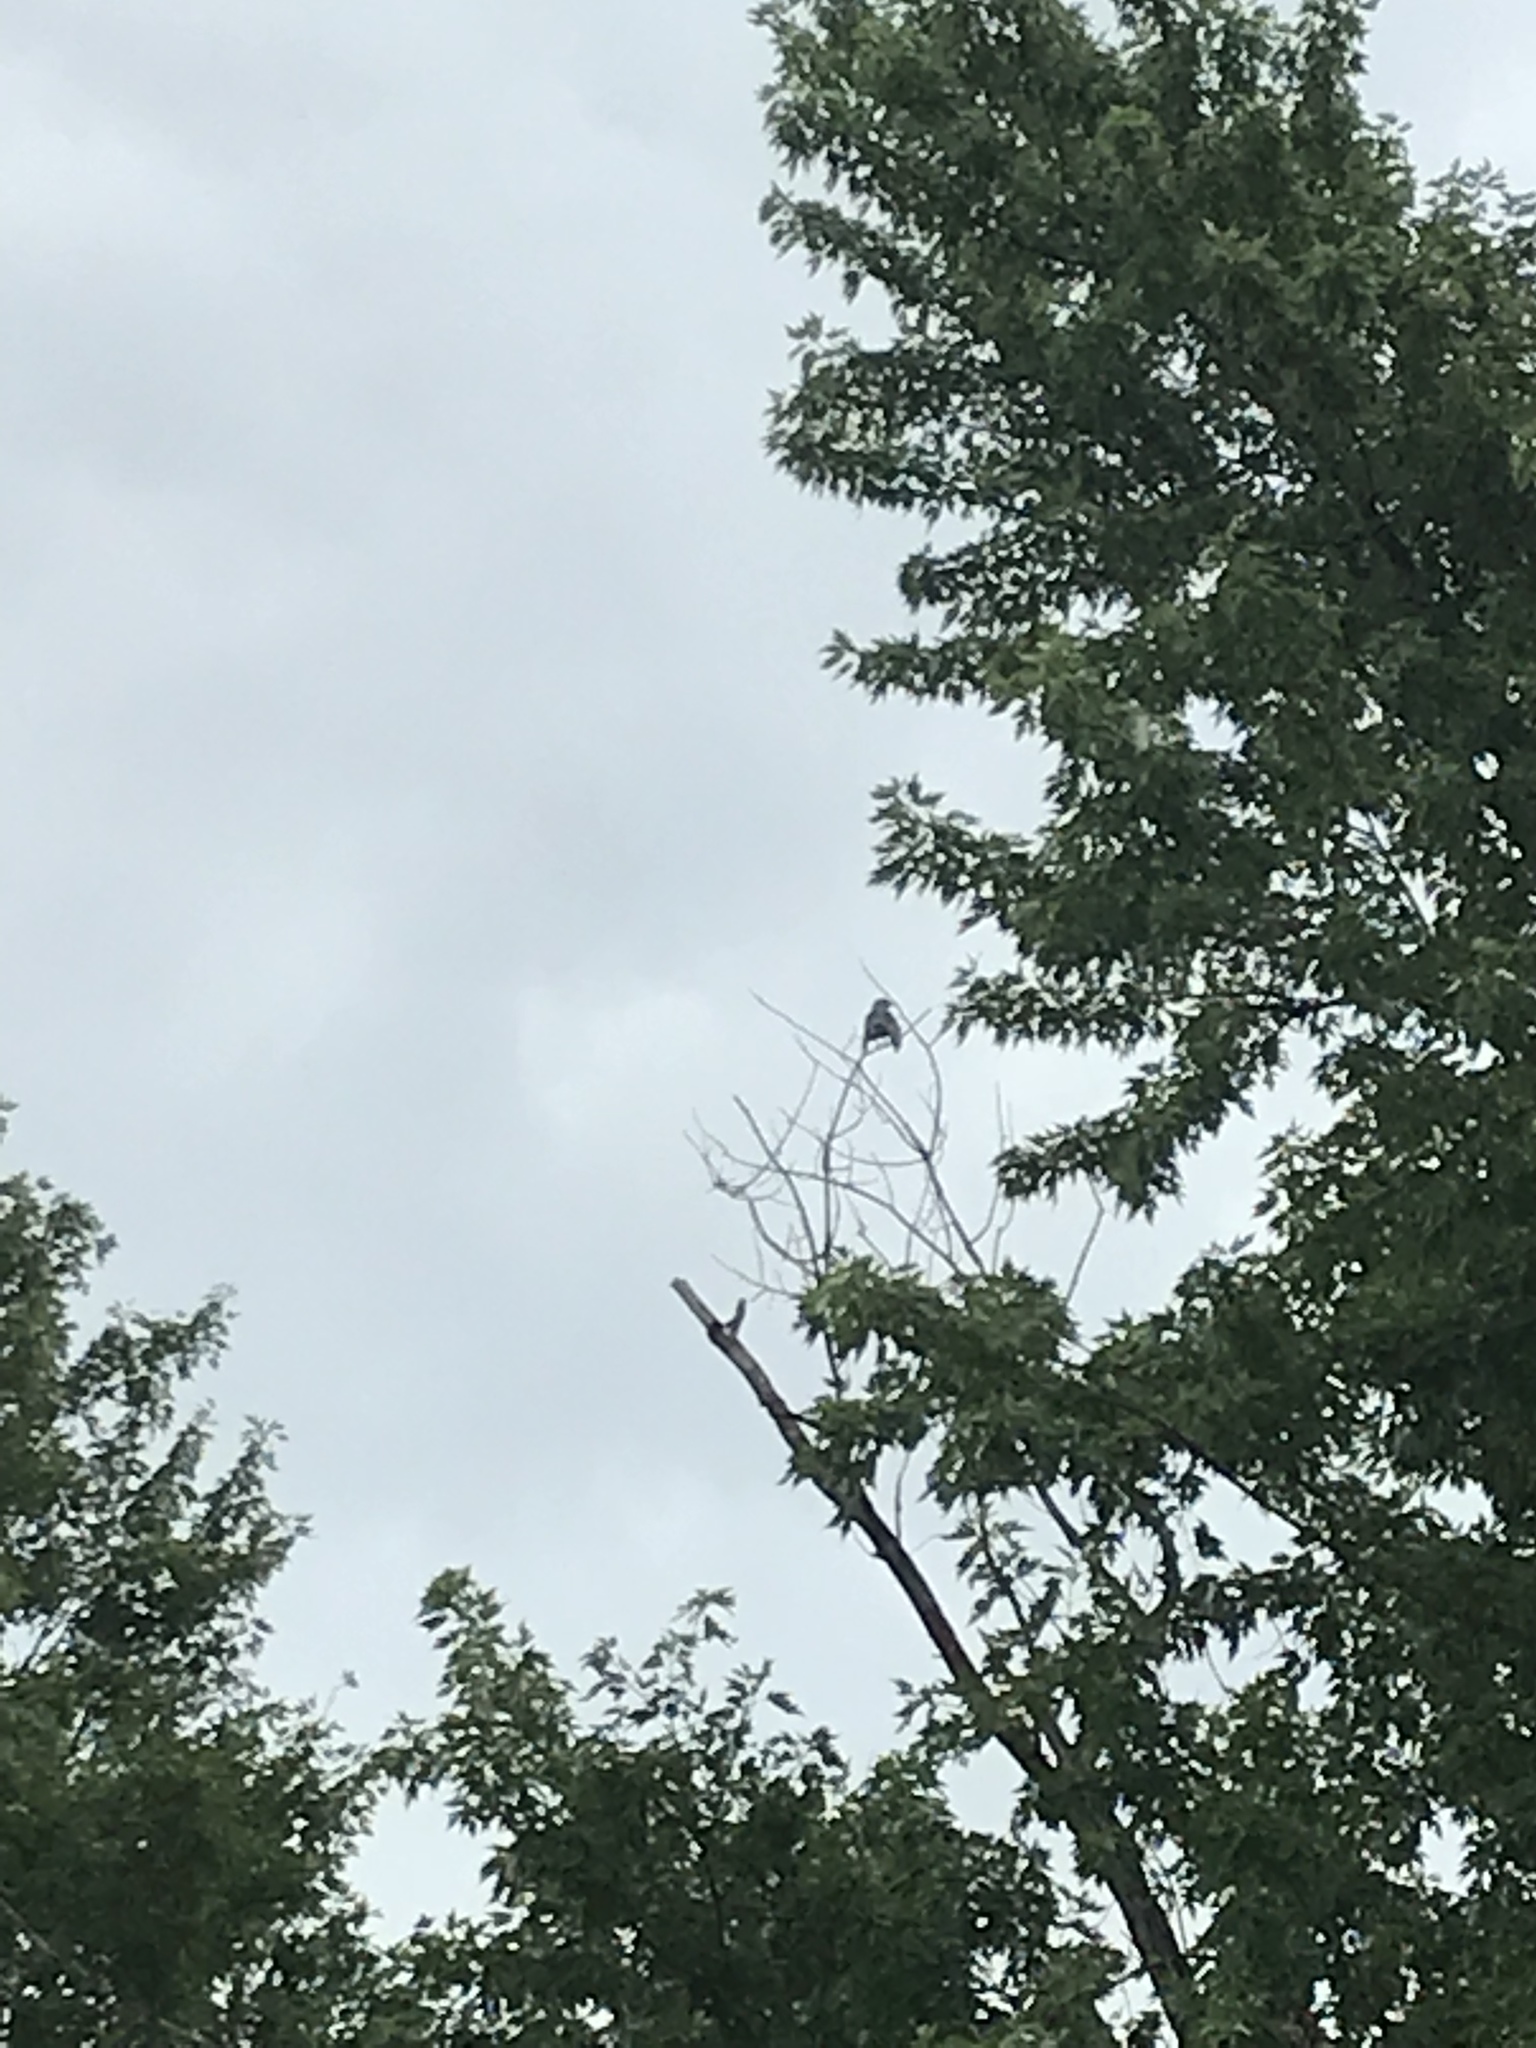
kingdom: Animalia
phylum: Chordata
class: Aves
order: Accipitriformes
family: Accipitridae
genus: Ictinia
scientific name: Ictinia mississippiensis
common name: Mississippi kite
